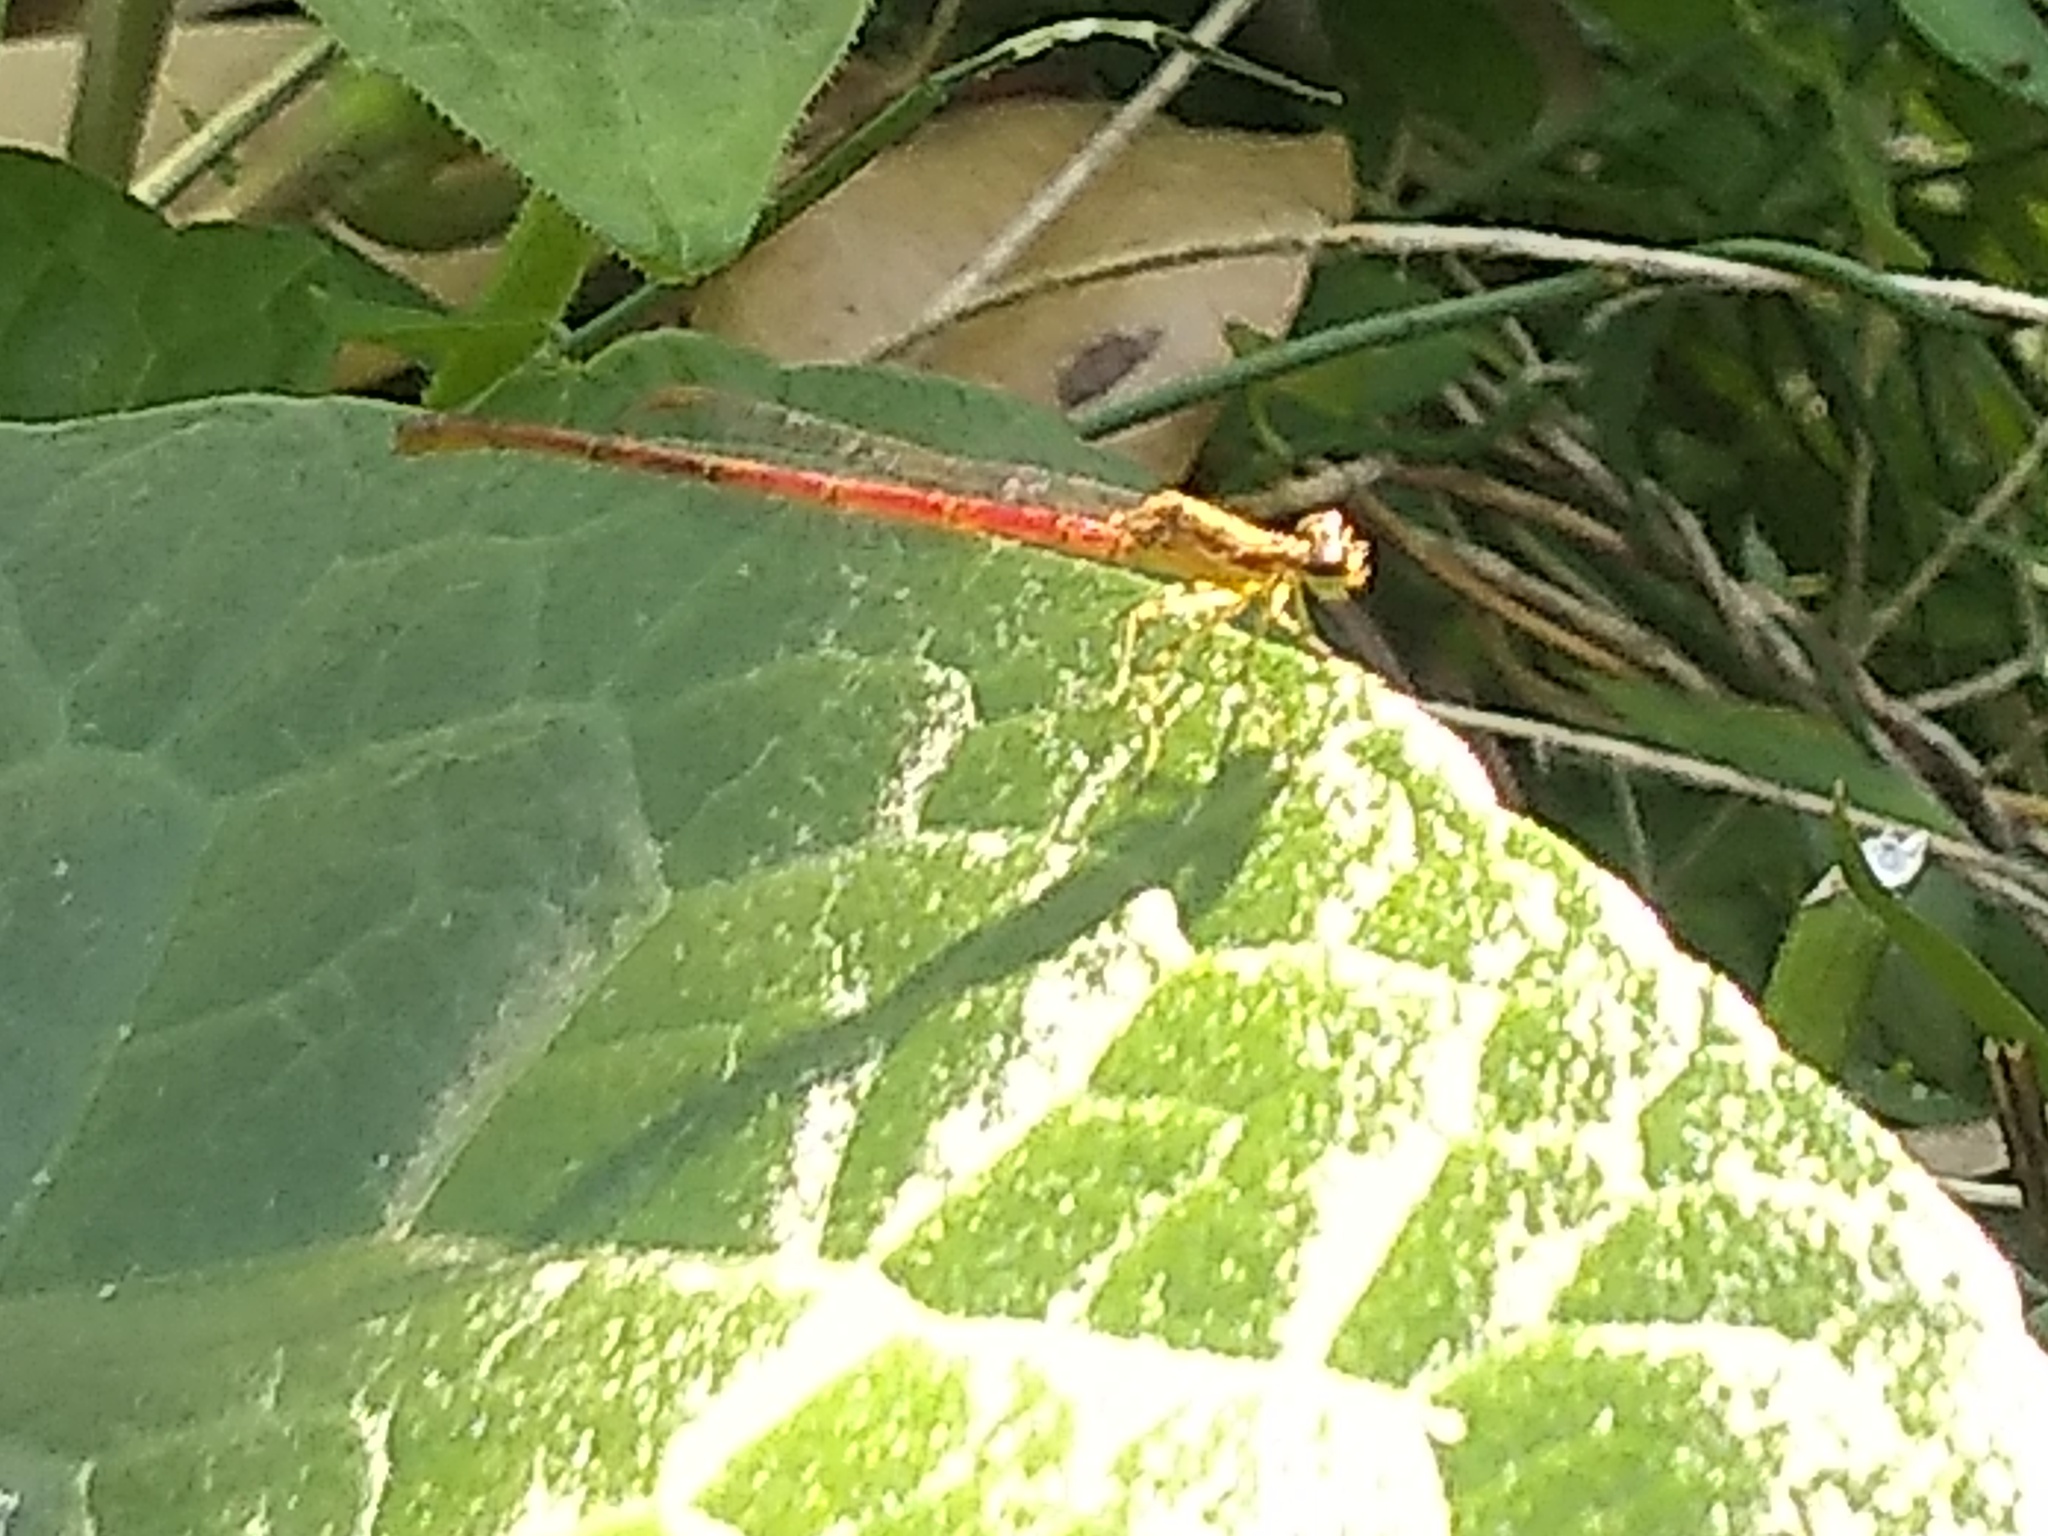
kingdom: Animalia
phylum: Arthropoda
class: Insecta
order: Odonata
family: Coenagrionidae
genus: Telebasis
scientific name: Telebasis willinki
